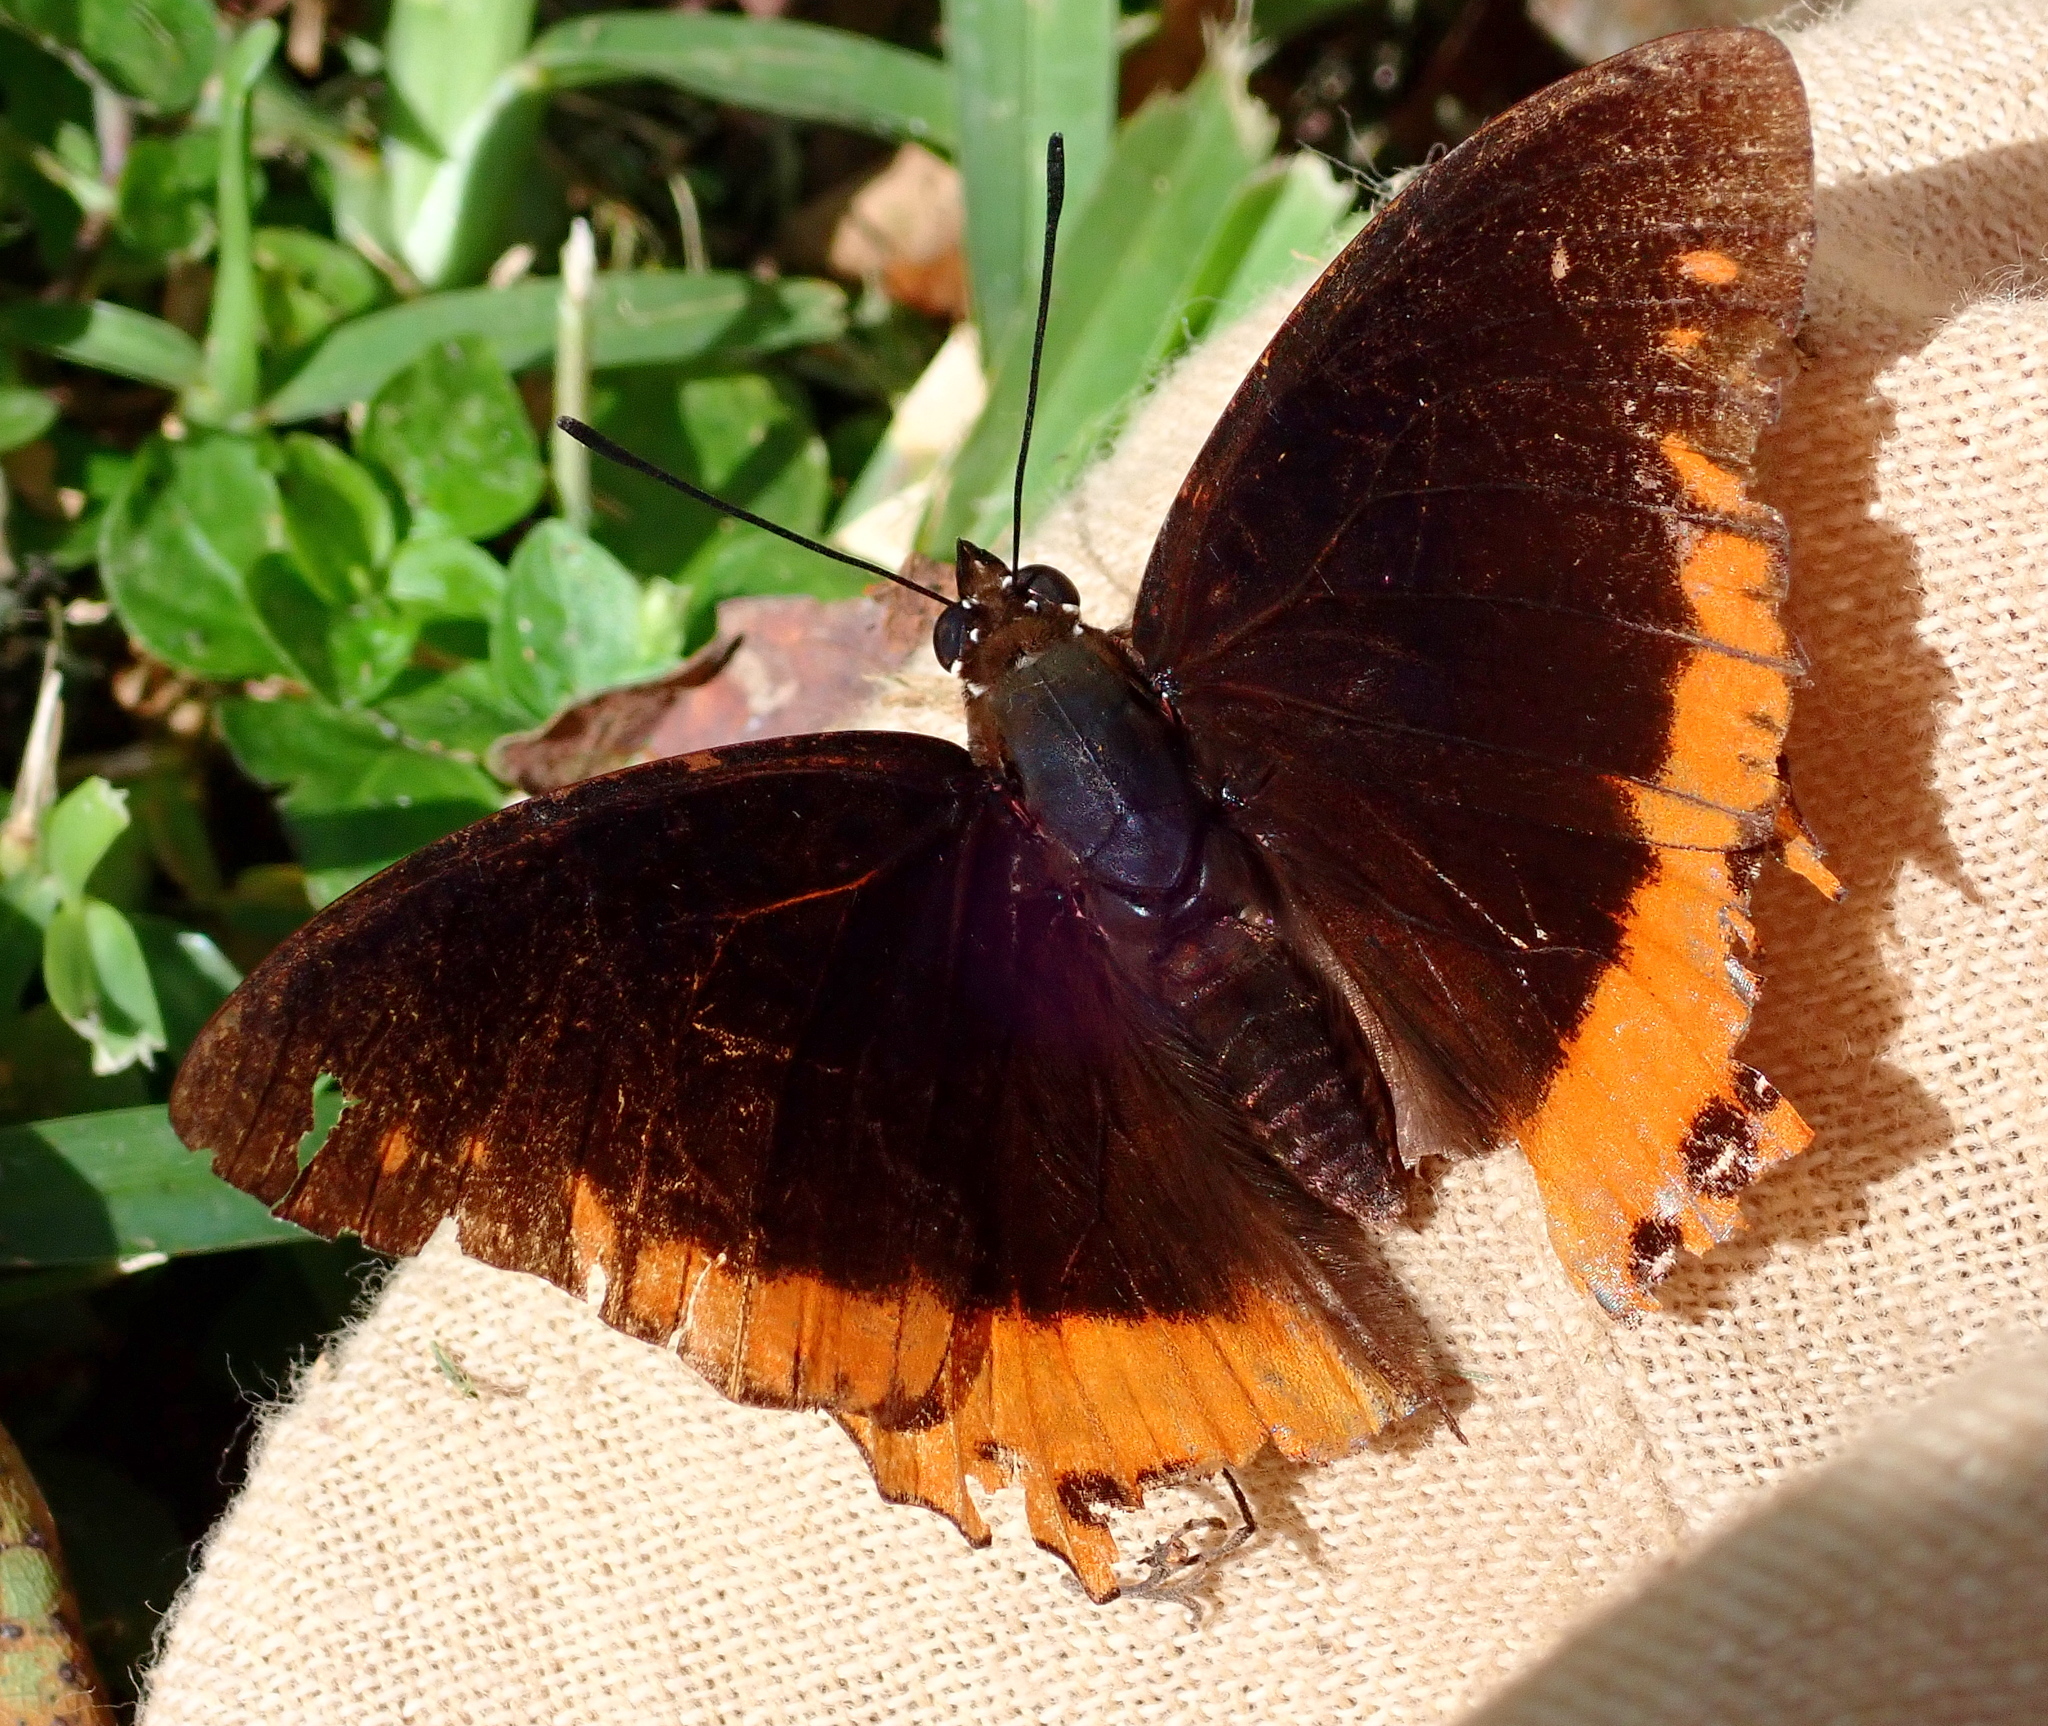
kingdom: Animalia
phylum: Arthropoda
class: Insecta
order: Lepidoptera
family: Nymphalidae
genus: Charaxes
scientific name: Charaxes anticlea
